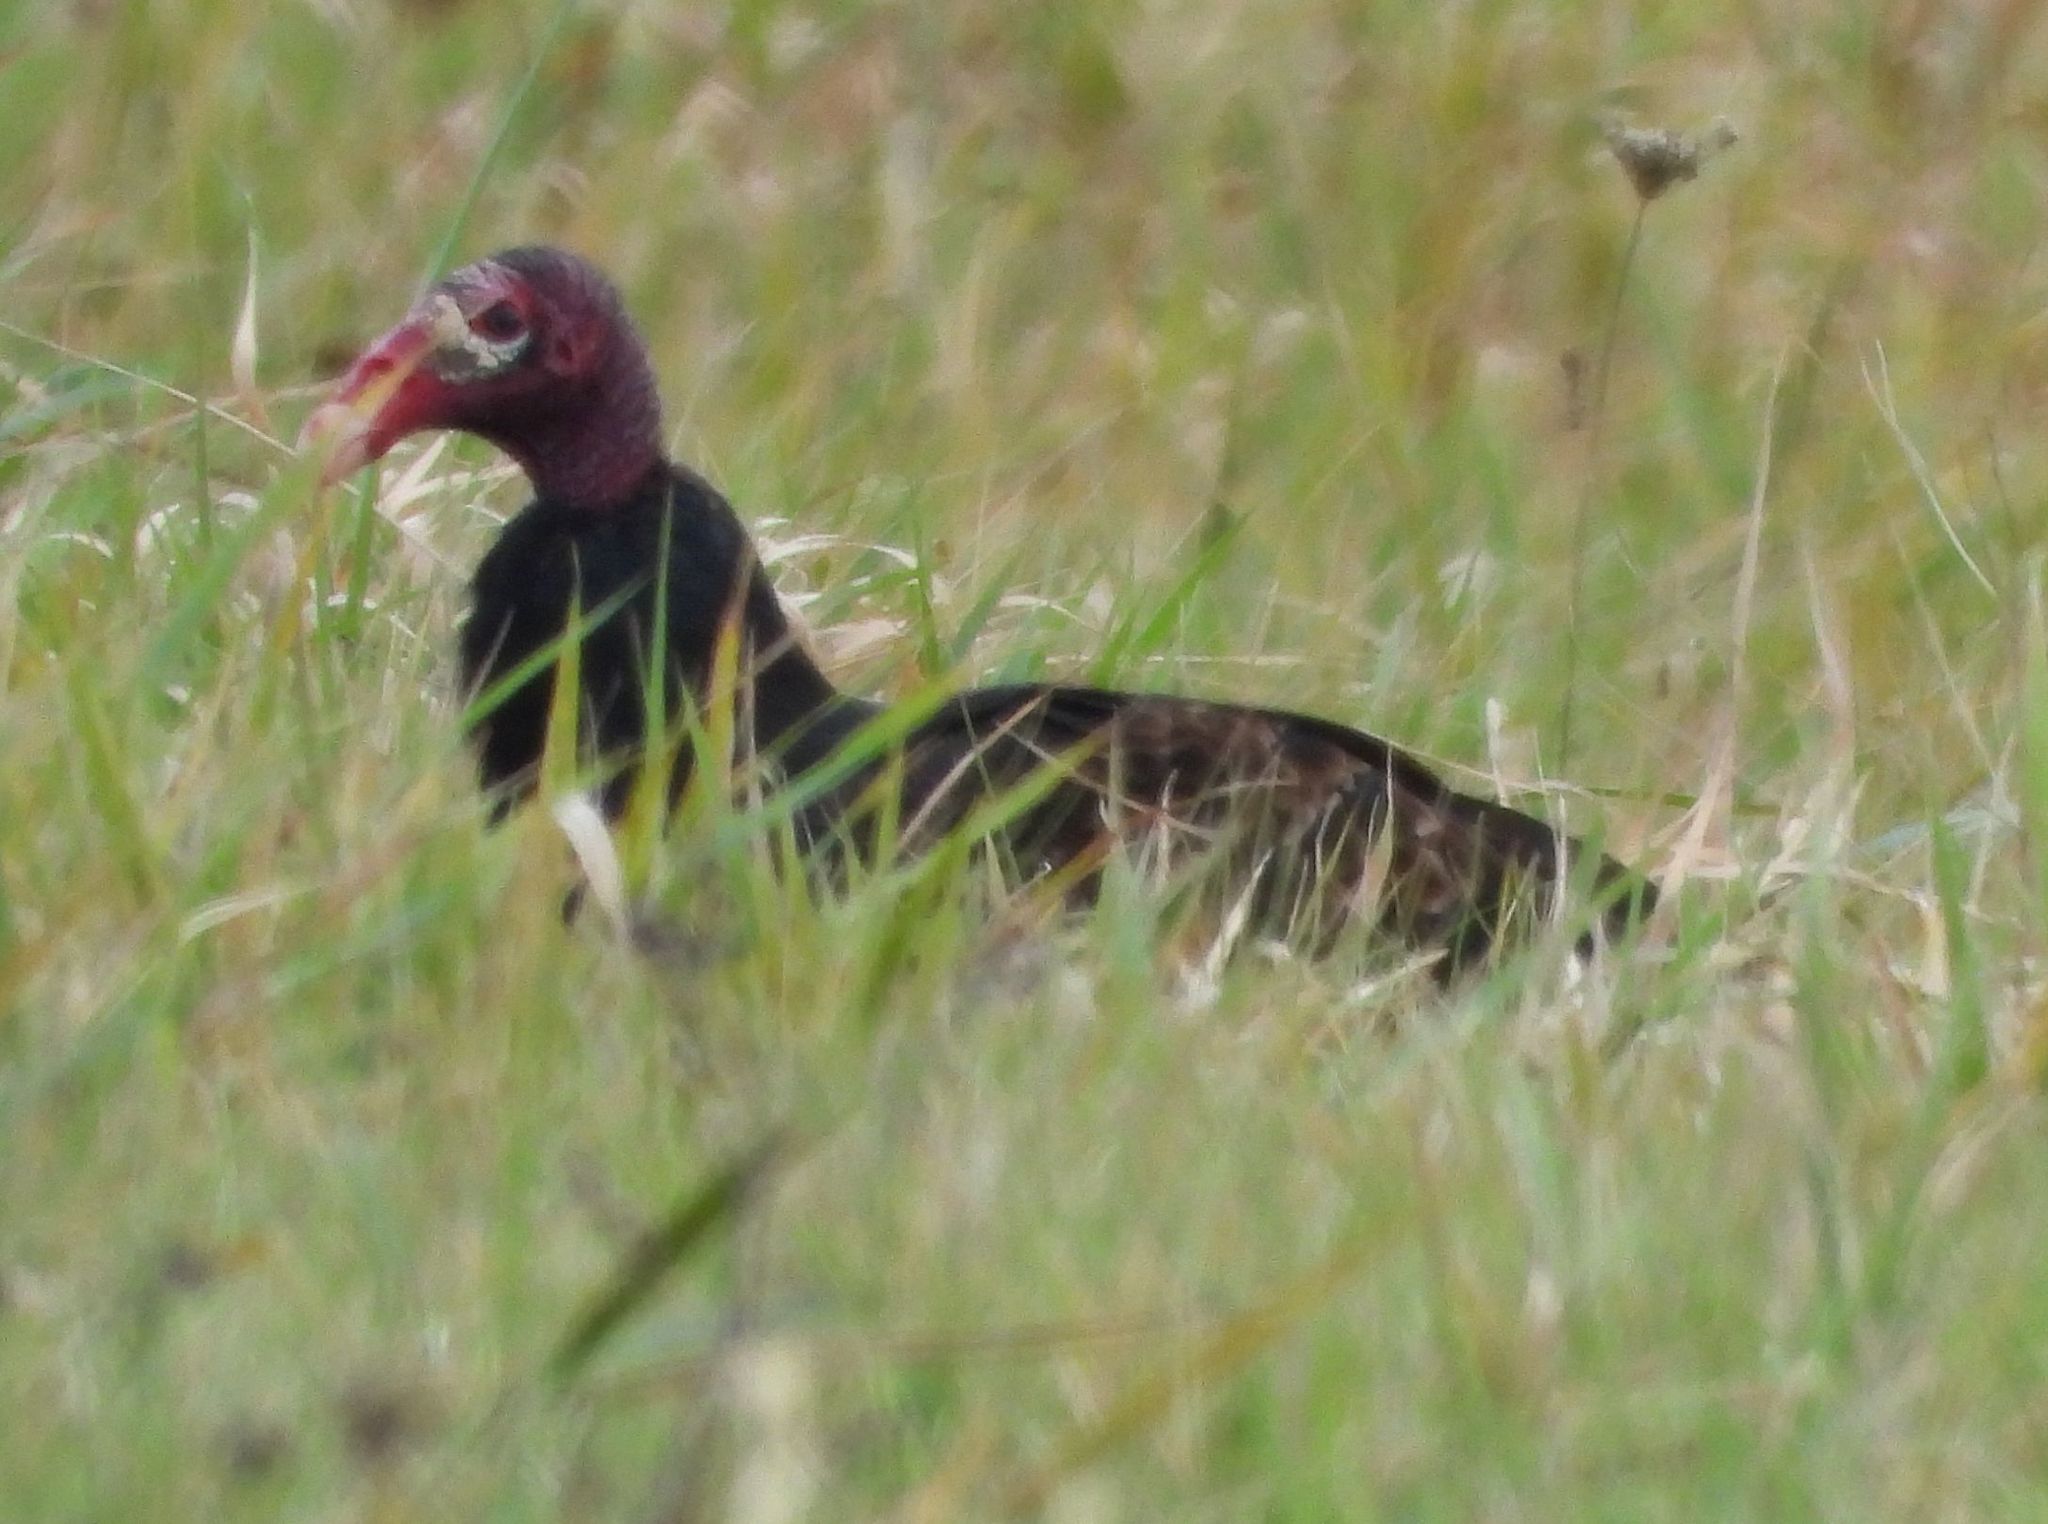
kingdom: Animalia
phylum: Chordata
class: Aves
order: Accipitriformes
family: Cathartidae
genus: Cathartes
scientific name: Cathartes aura
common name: Turkey vulture
